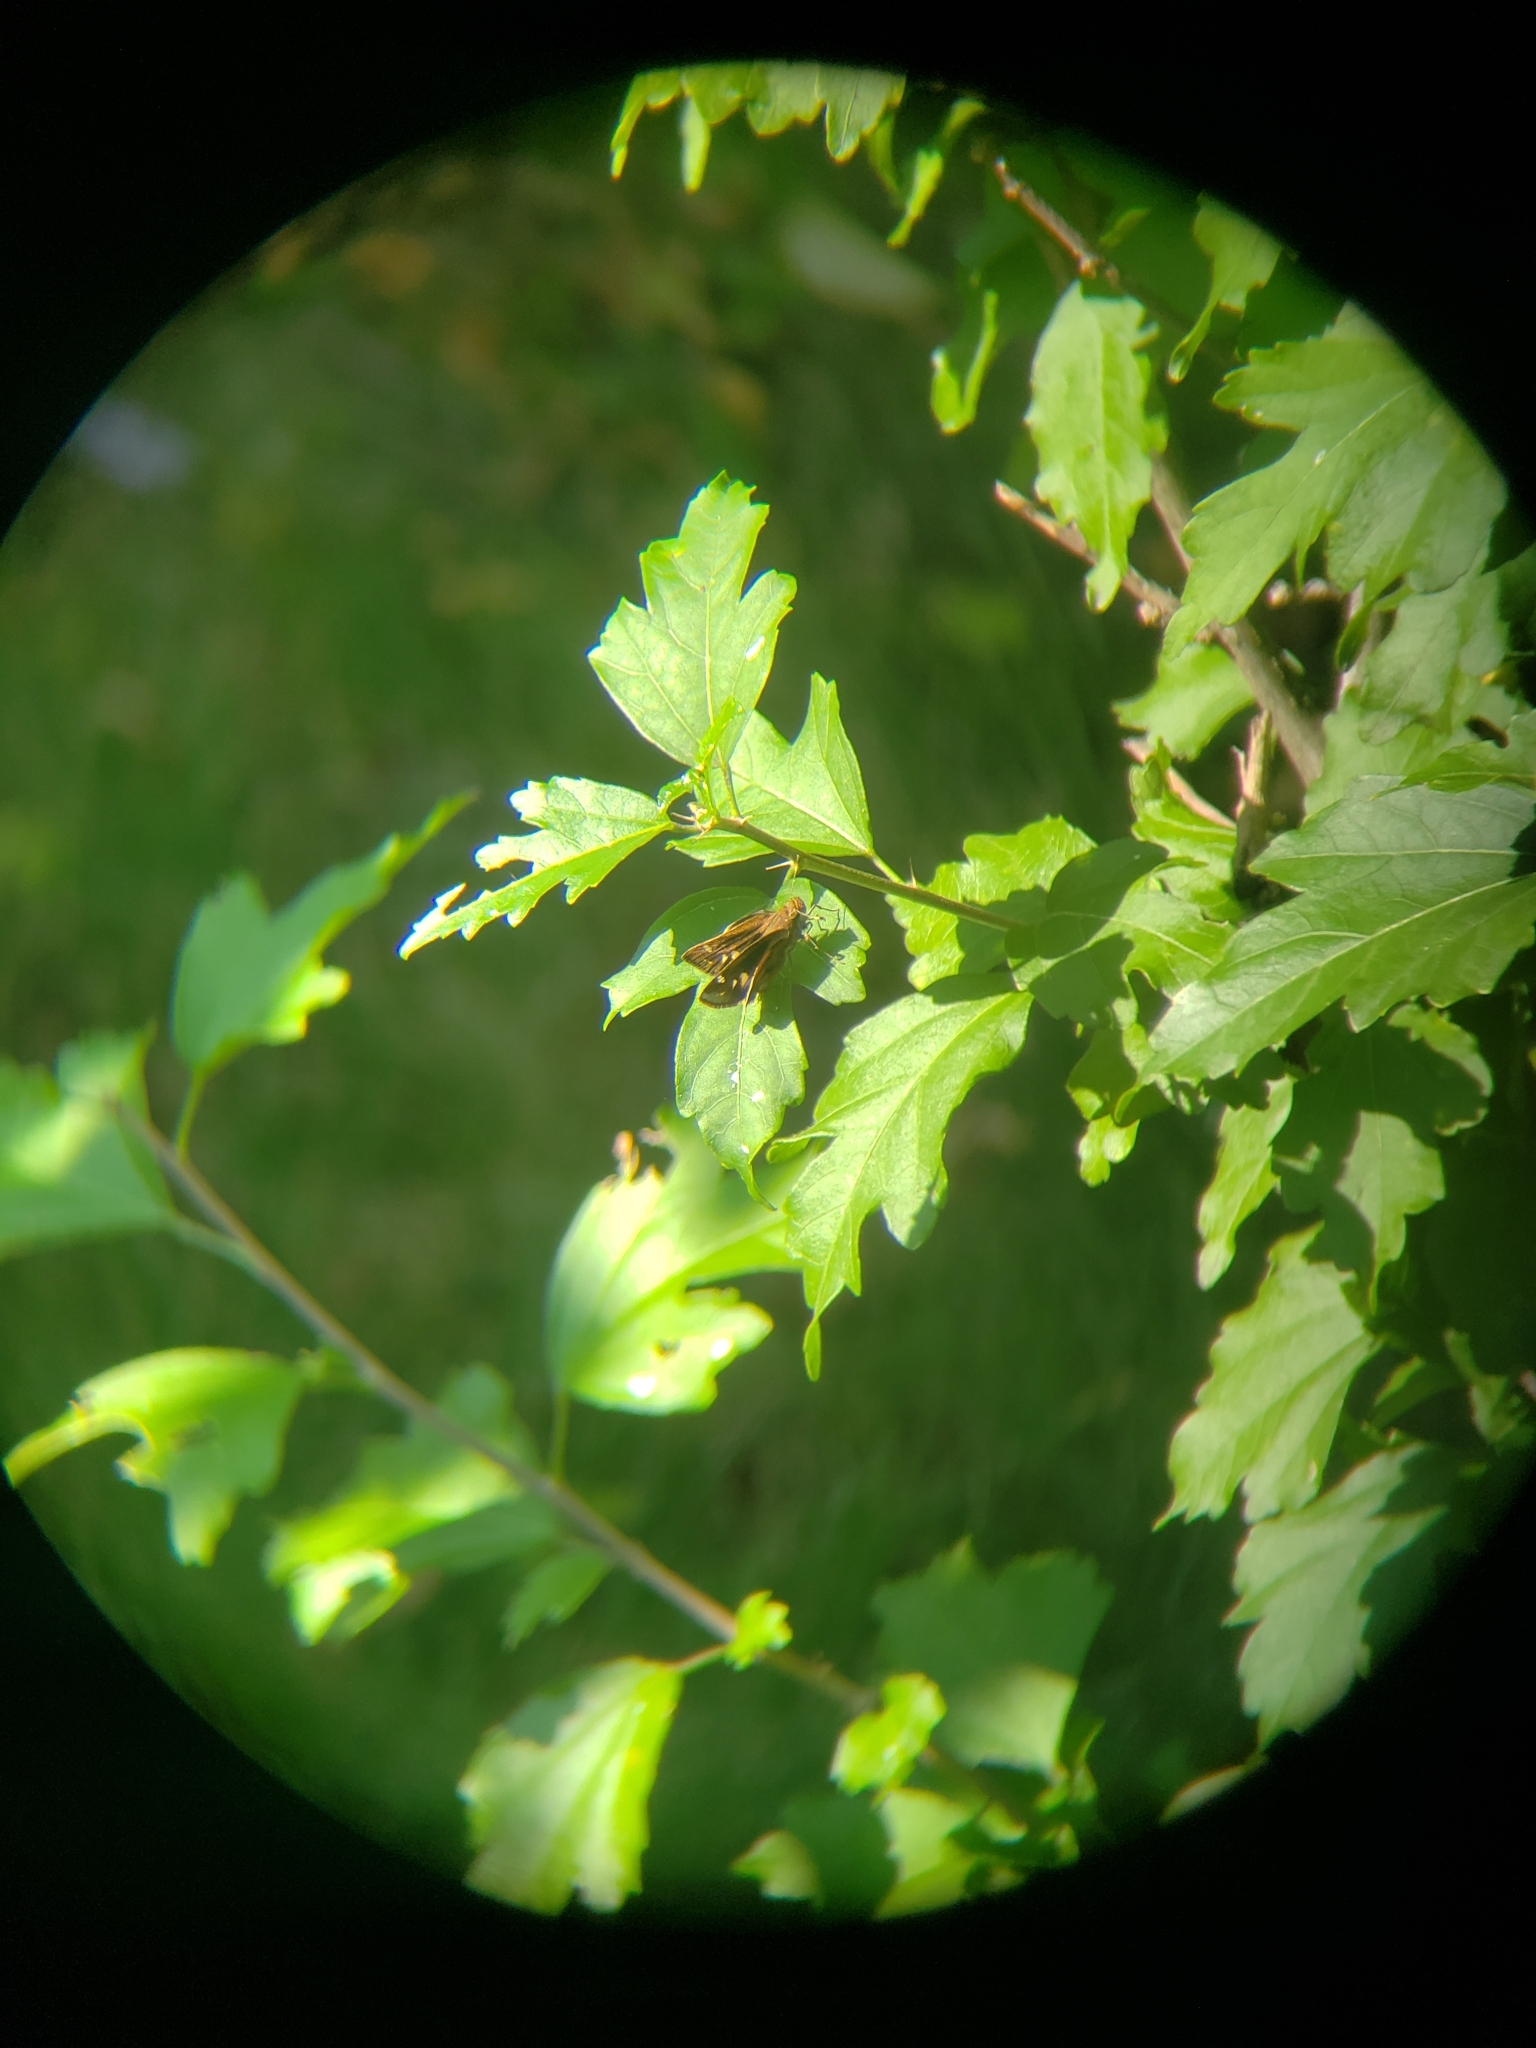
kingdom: Animalia
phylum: Arthropoda
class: Insecta
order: Lepidoptera
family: Hesperiidae
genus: Lon
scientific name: Lon zabulon
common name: Zabulon skipper
